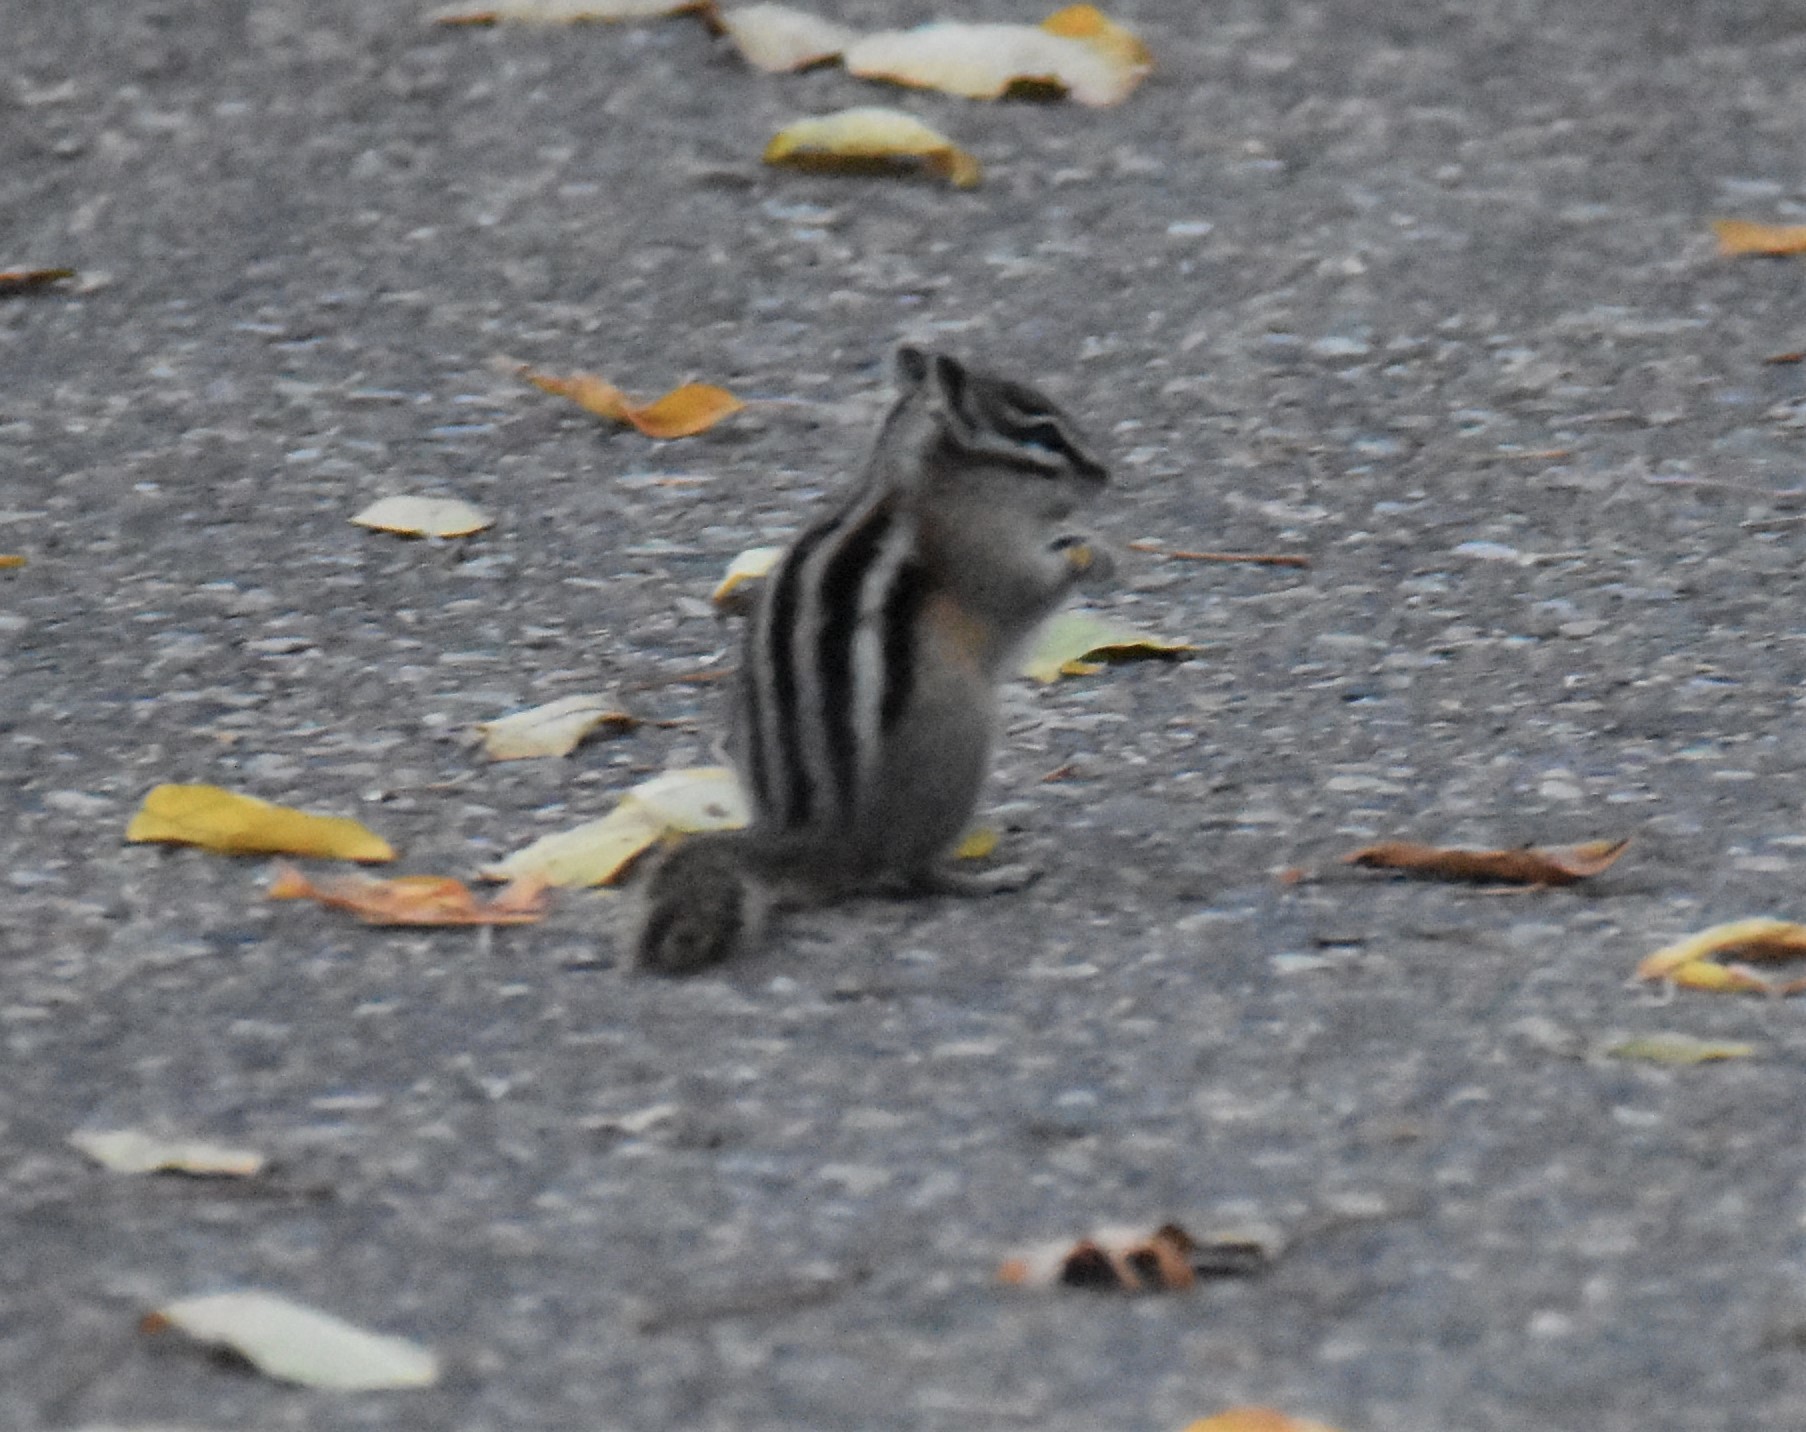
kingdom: Animalia
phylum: Chordata
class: Mammalia
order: Rodentia
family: Sciuridae
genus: Tamias
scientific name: Tamias minimus
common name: Least chipmunk
